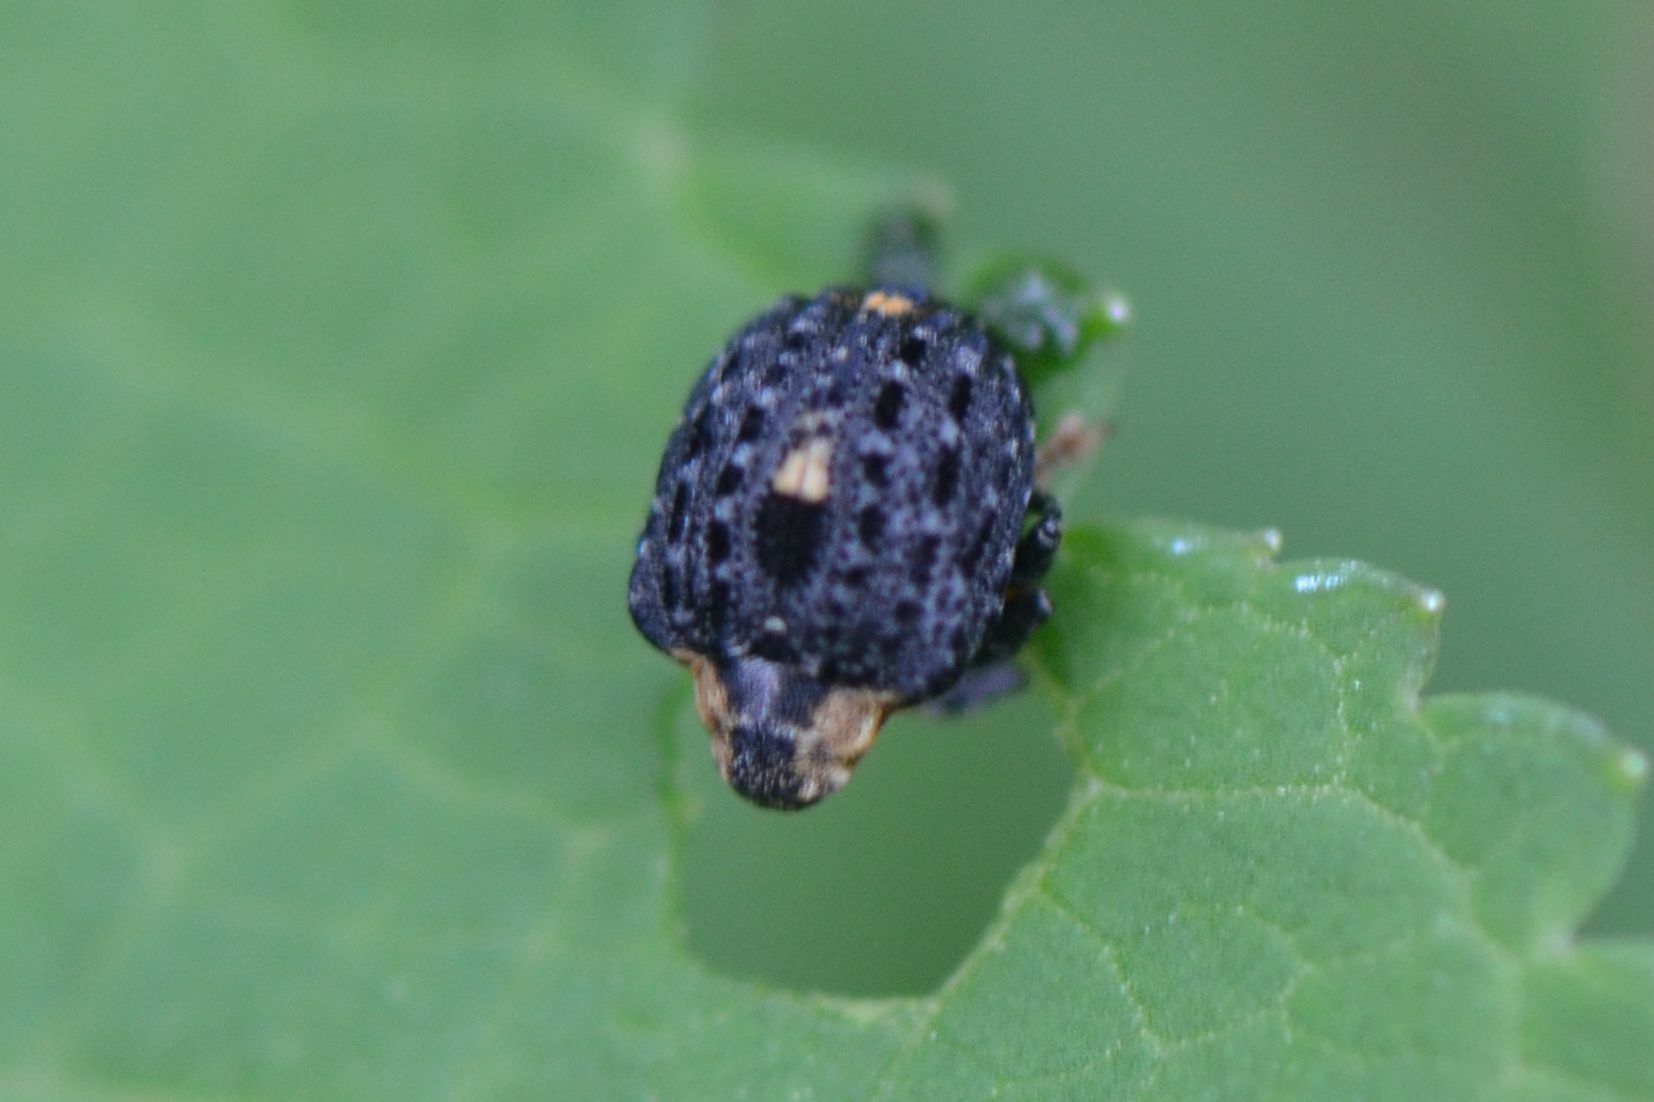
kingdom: Animalia
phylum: Arthropoda
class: Insecta
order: Coleoptera
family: Curculionidae
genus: Cionus
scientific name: Cionus tuberculosus
